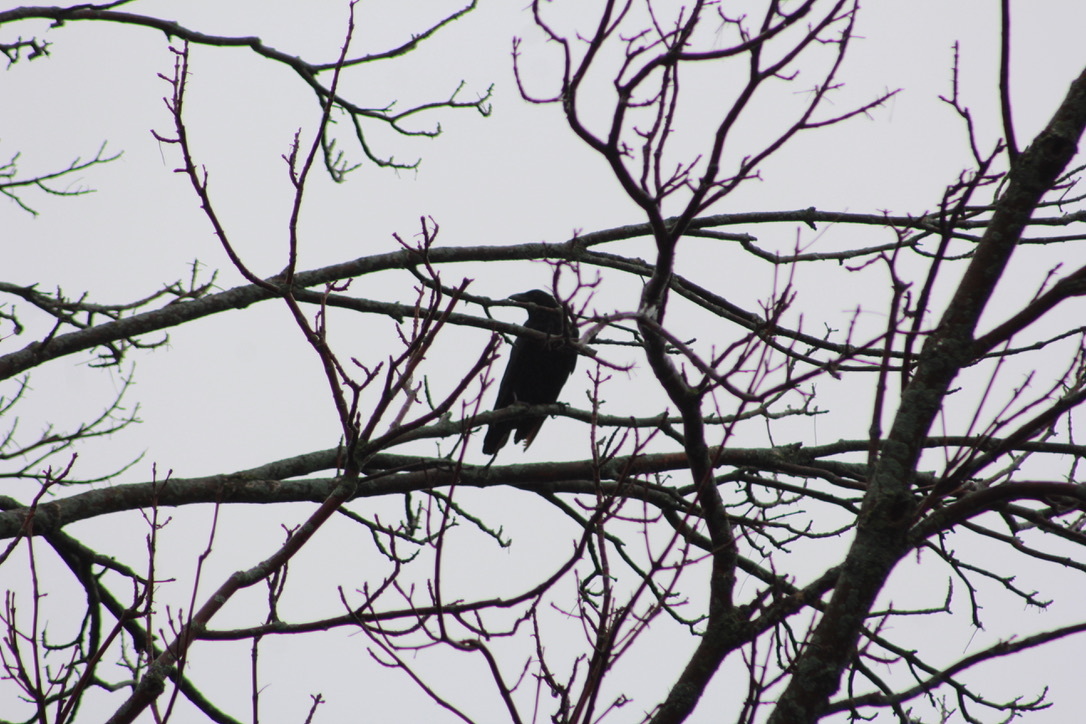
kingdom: Animalia
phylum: Chordata
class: Aves
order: Passeriformes
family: Corvidae
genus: Corvus
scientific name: Corvus brachyrhynchos
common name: American crow
